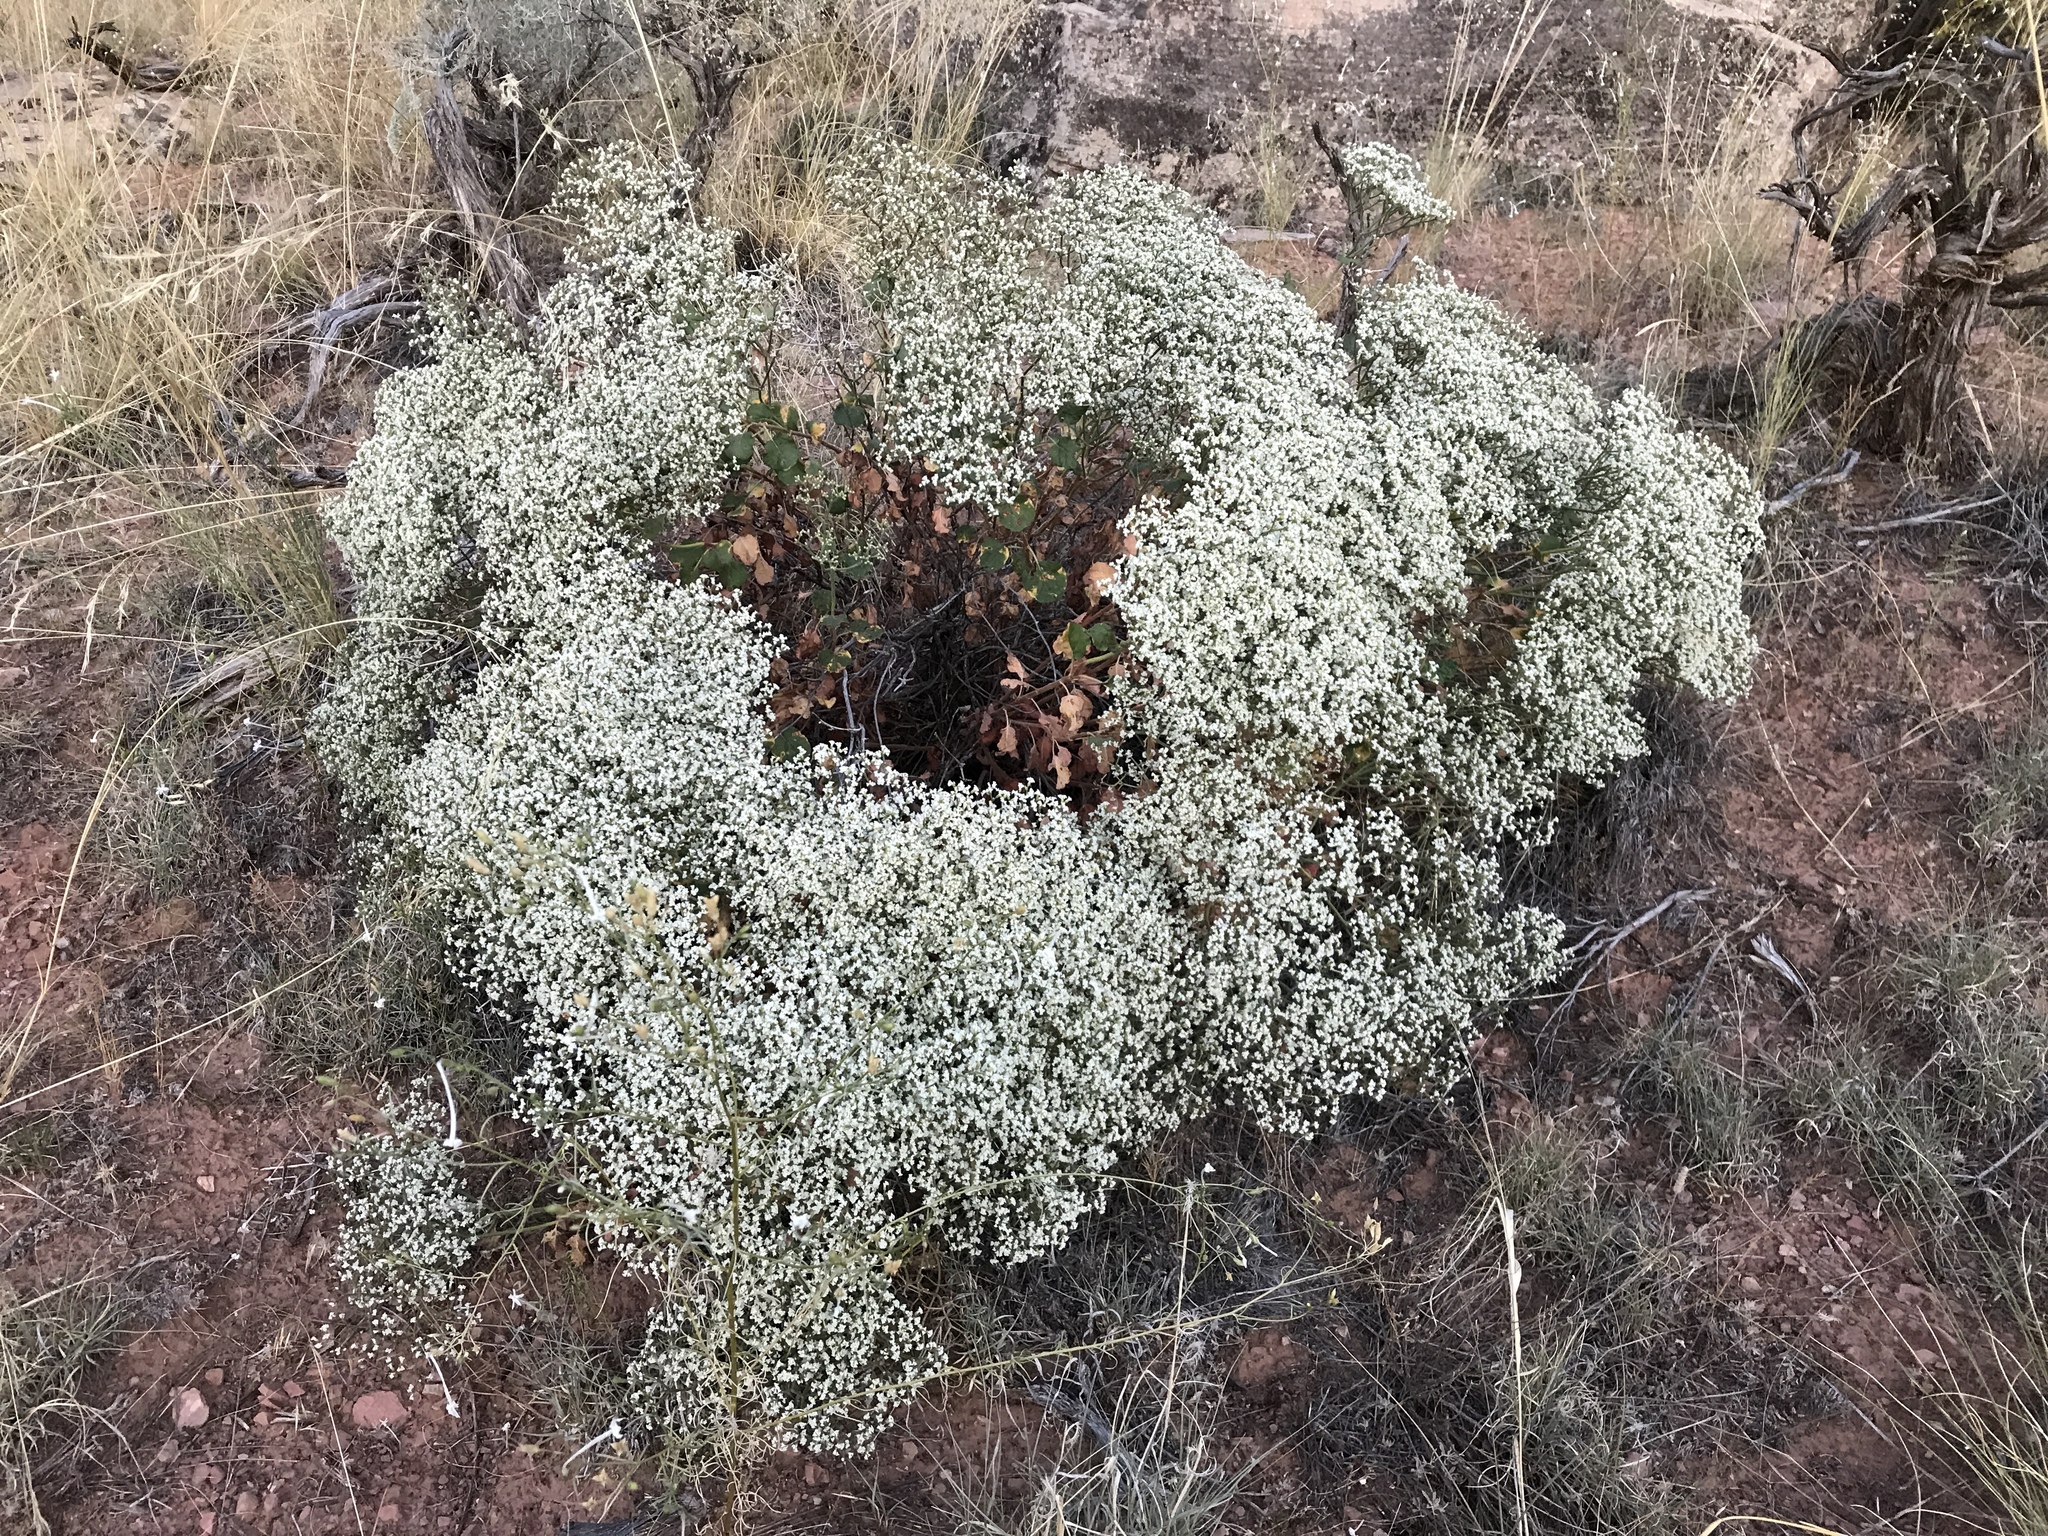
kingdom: Plantae
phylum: Tracheophyta
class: Magnoliopsida
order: Caryophyllales
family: Polygonaceae
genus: Eriogonum
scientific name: Eriogonum corymbosum
